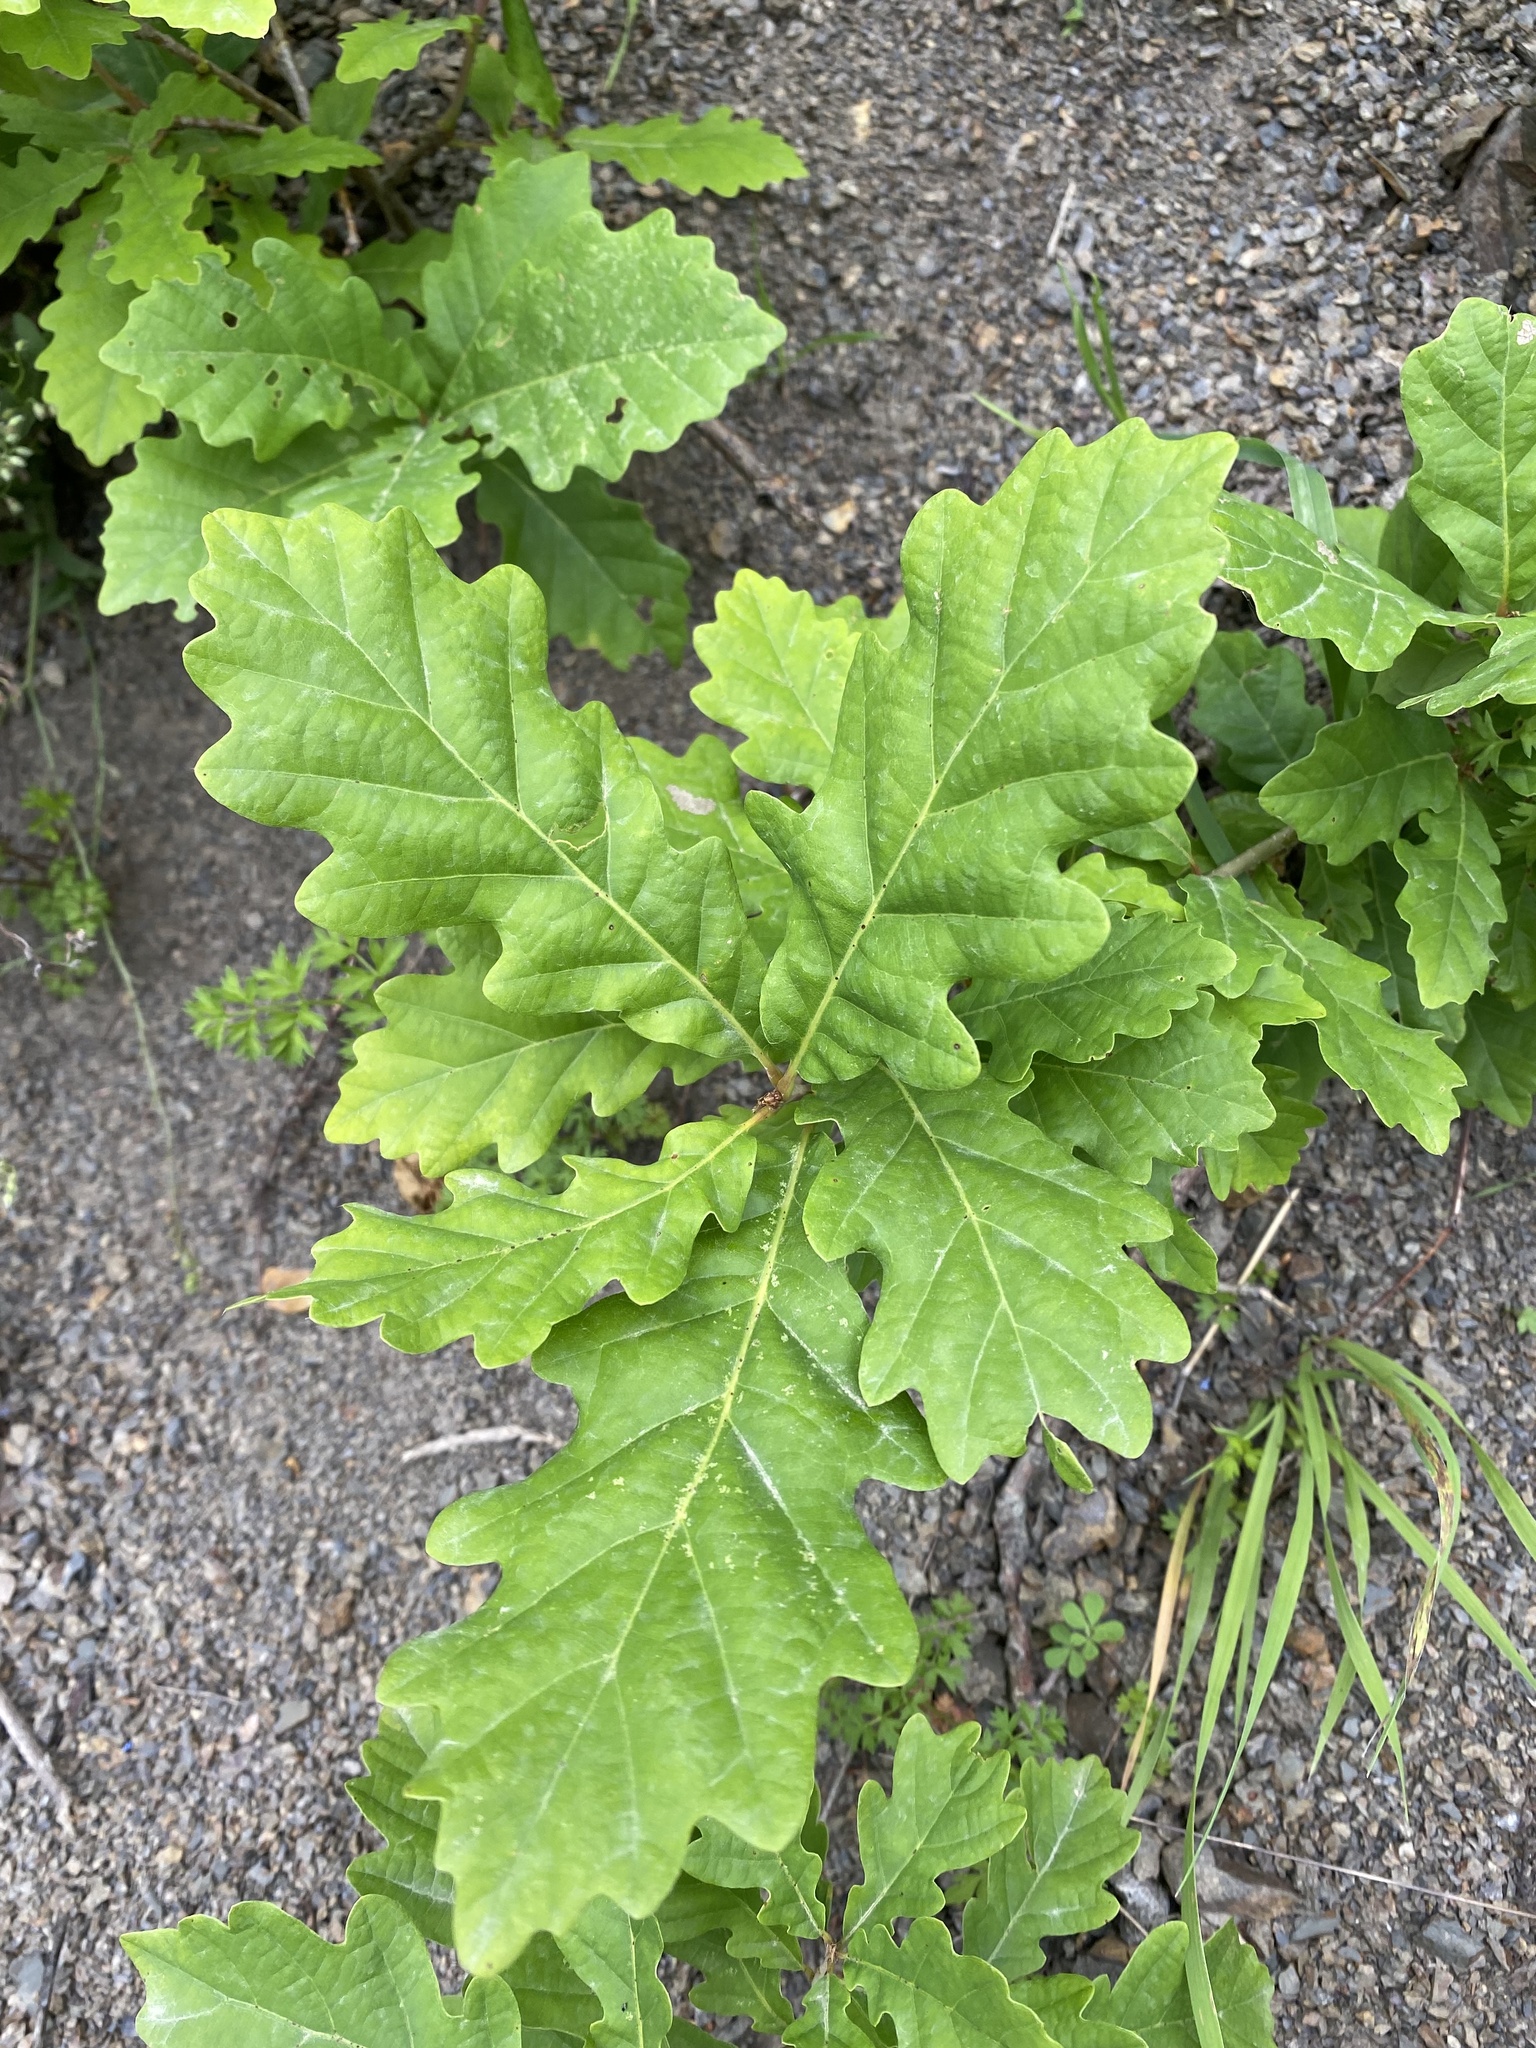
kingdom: Plantae
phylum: Tracheophyta
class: Magnoliopsida
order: Fagales
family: Fagaceae
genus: Quercus
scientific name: Quercus robur
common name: Pedunculate oak
